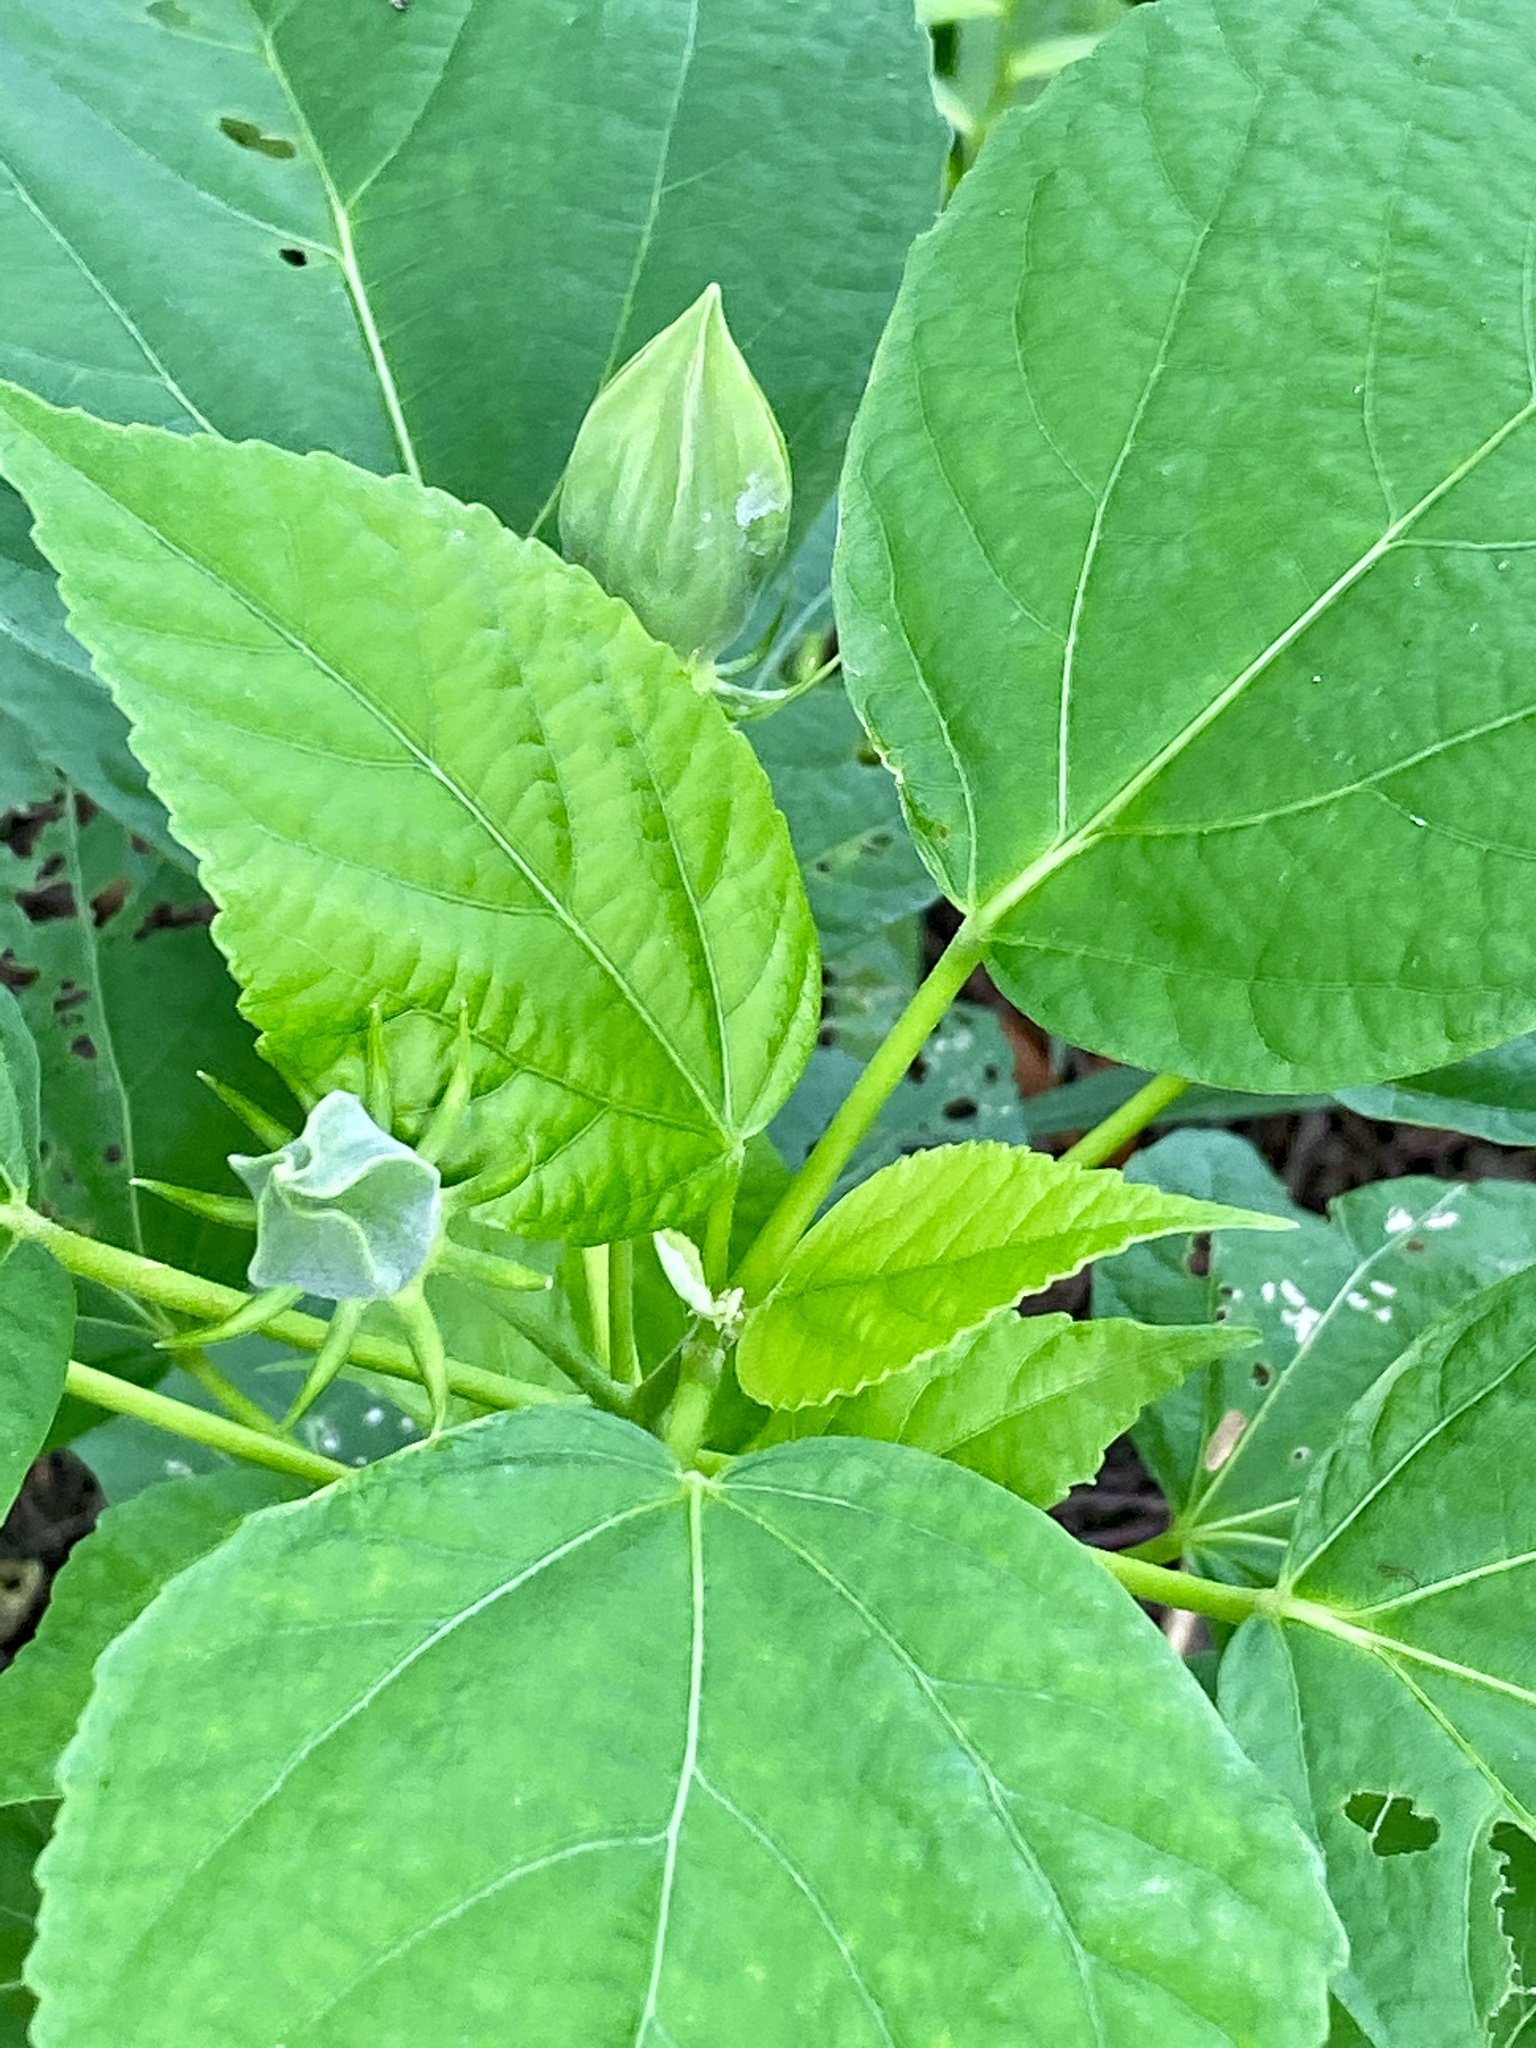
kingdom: Plantae
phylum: Tracheophyta
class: Magnoliopsida
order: Malvales
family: Malvaceae
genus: Hibiscus
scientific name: Hibiscus moscheutos
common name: Common rose-mallow
